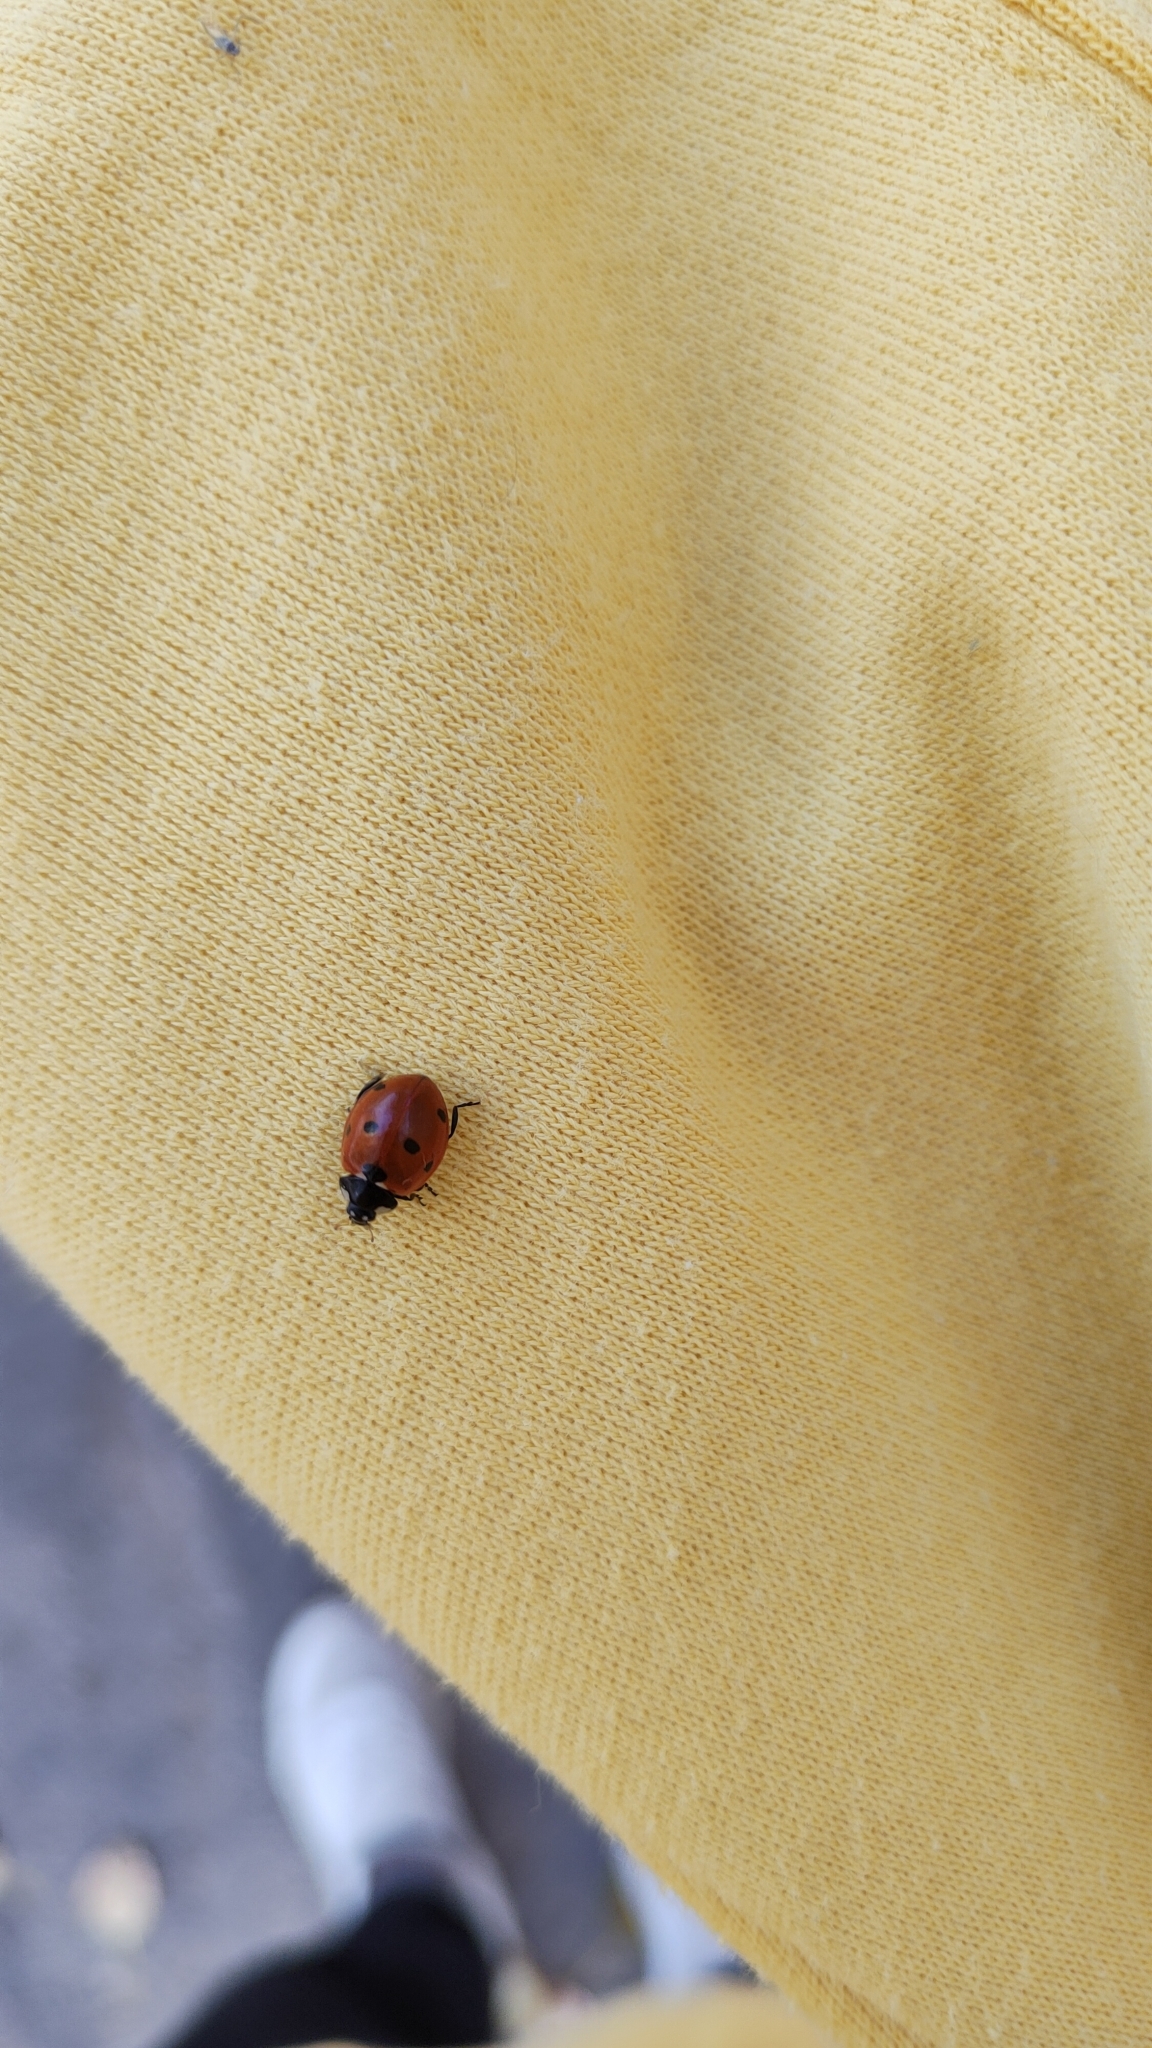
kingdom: Animalia
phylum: Arthropoda
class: Insecta
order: Coleoptera
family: Coccinellidae
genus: Coccinella
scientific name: Coccinella septempunctata
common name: Sevenspotted lady beetle
